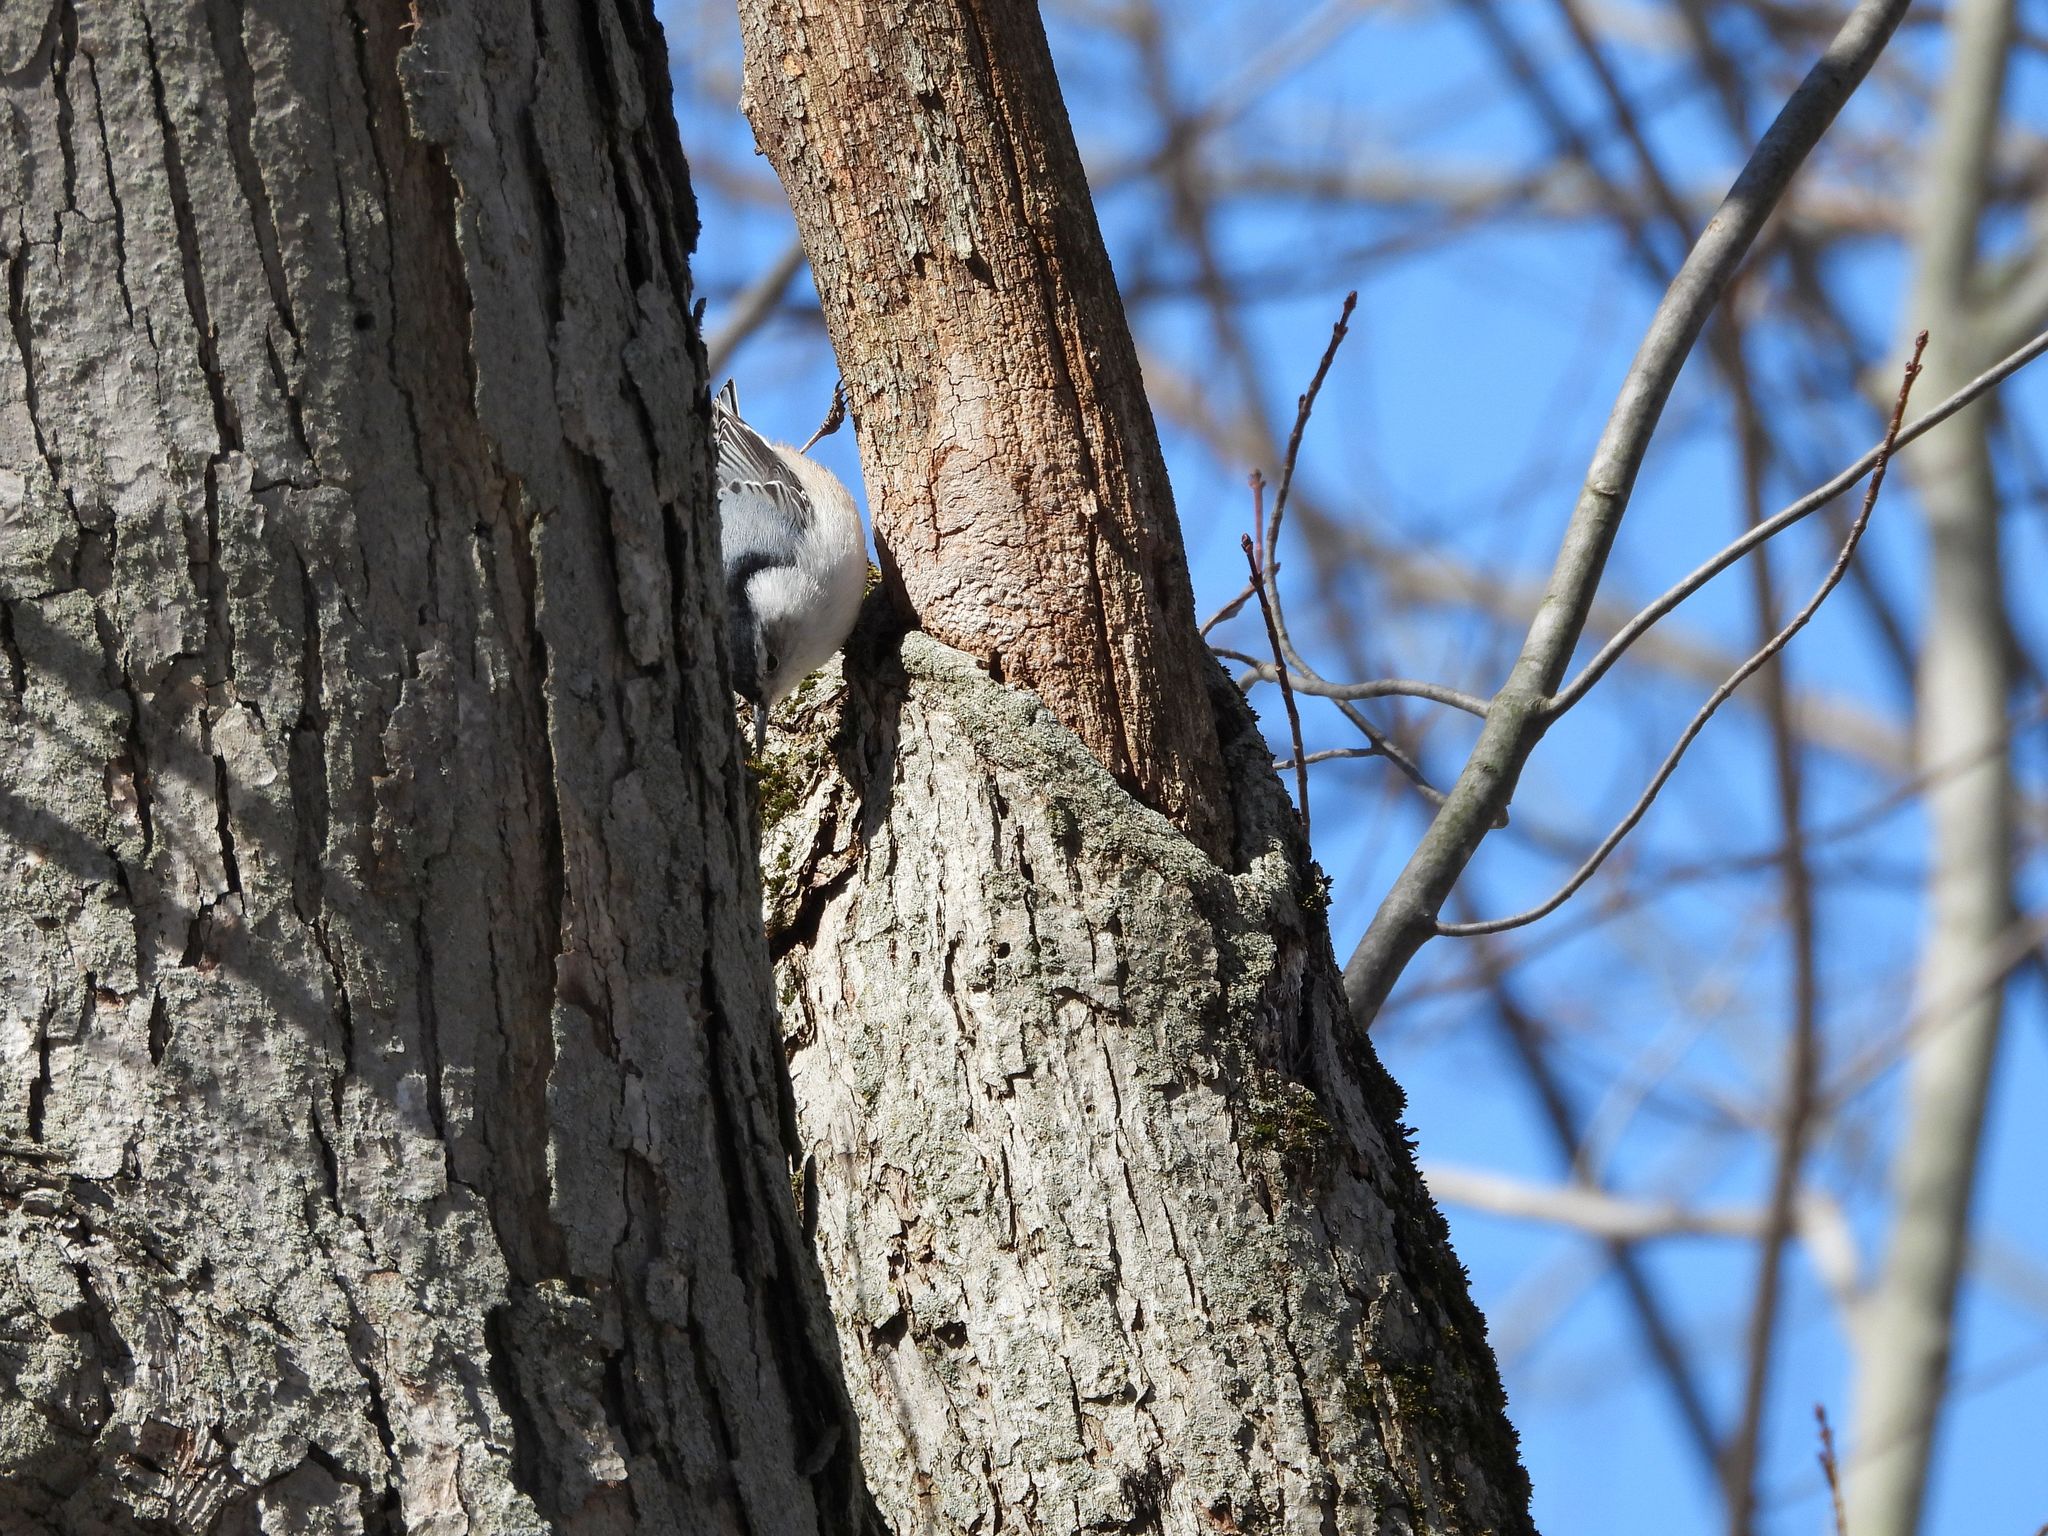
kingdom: Animalia
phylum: Chordata
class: Aves
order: Passeriformes
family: Sittidae
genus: Sitta
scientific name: Sitta carolinensis
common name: White-breasted nuthatch
